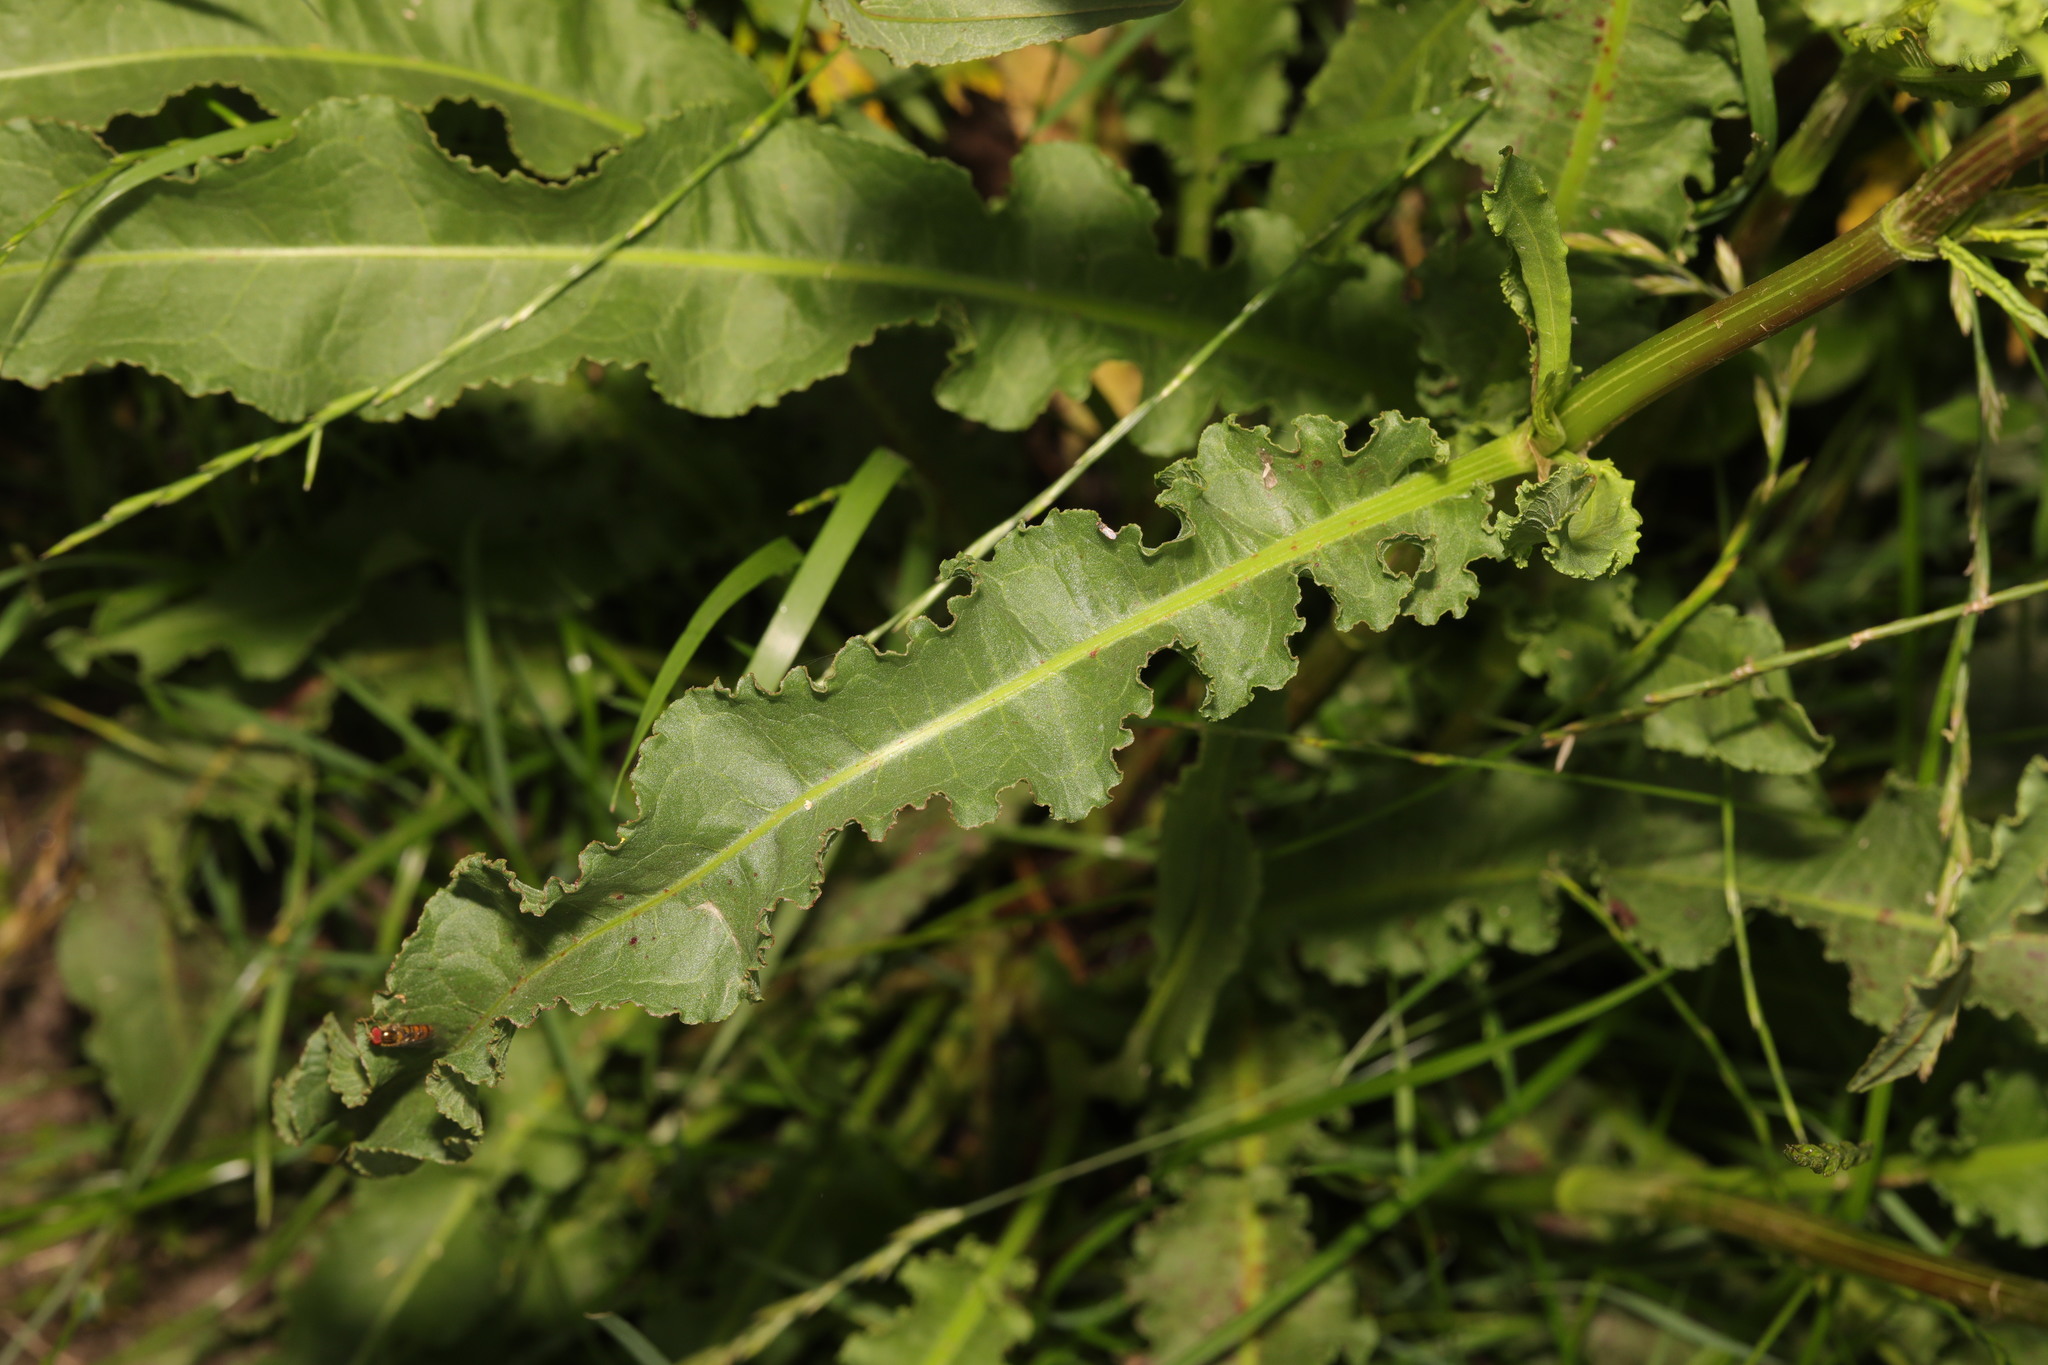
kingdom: Plantae
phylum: Tracheophyta
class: Magnoliopsida
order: Caryophyllales
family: Polygonaceae
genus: Rumex
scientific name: Rumex crispus
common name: Curled dock
